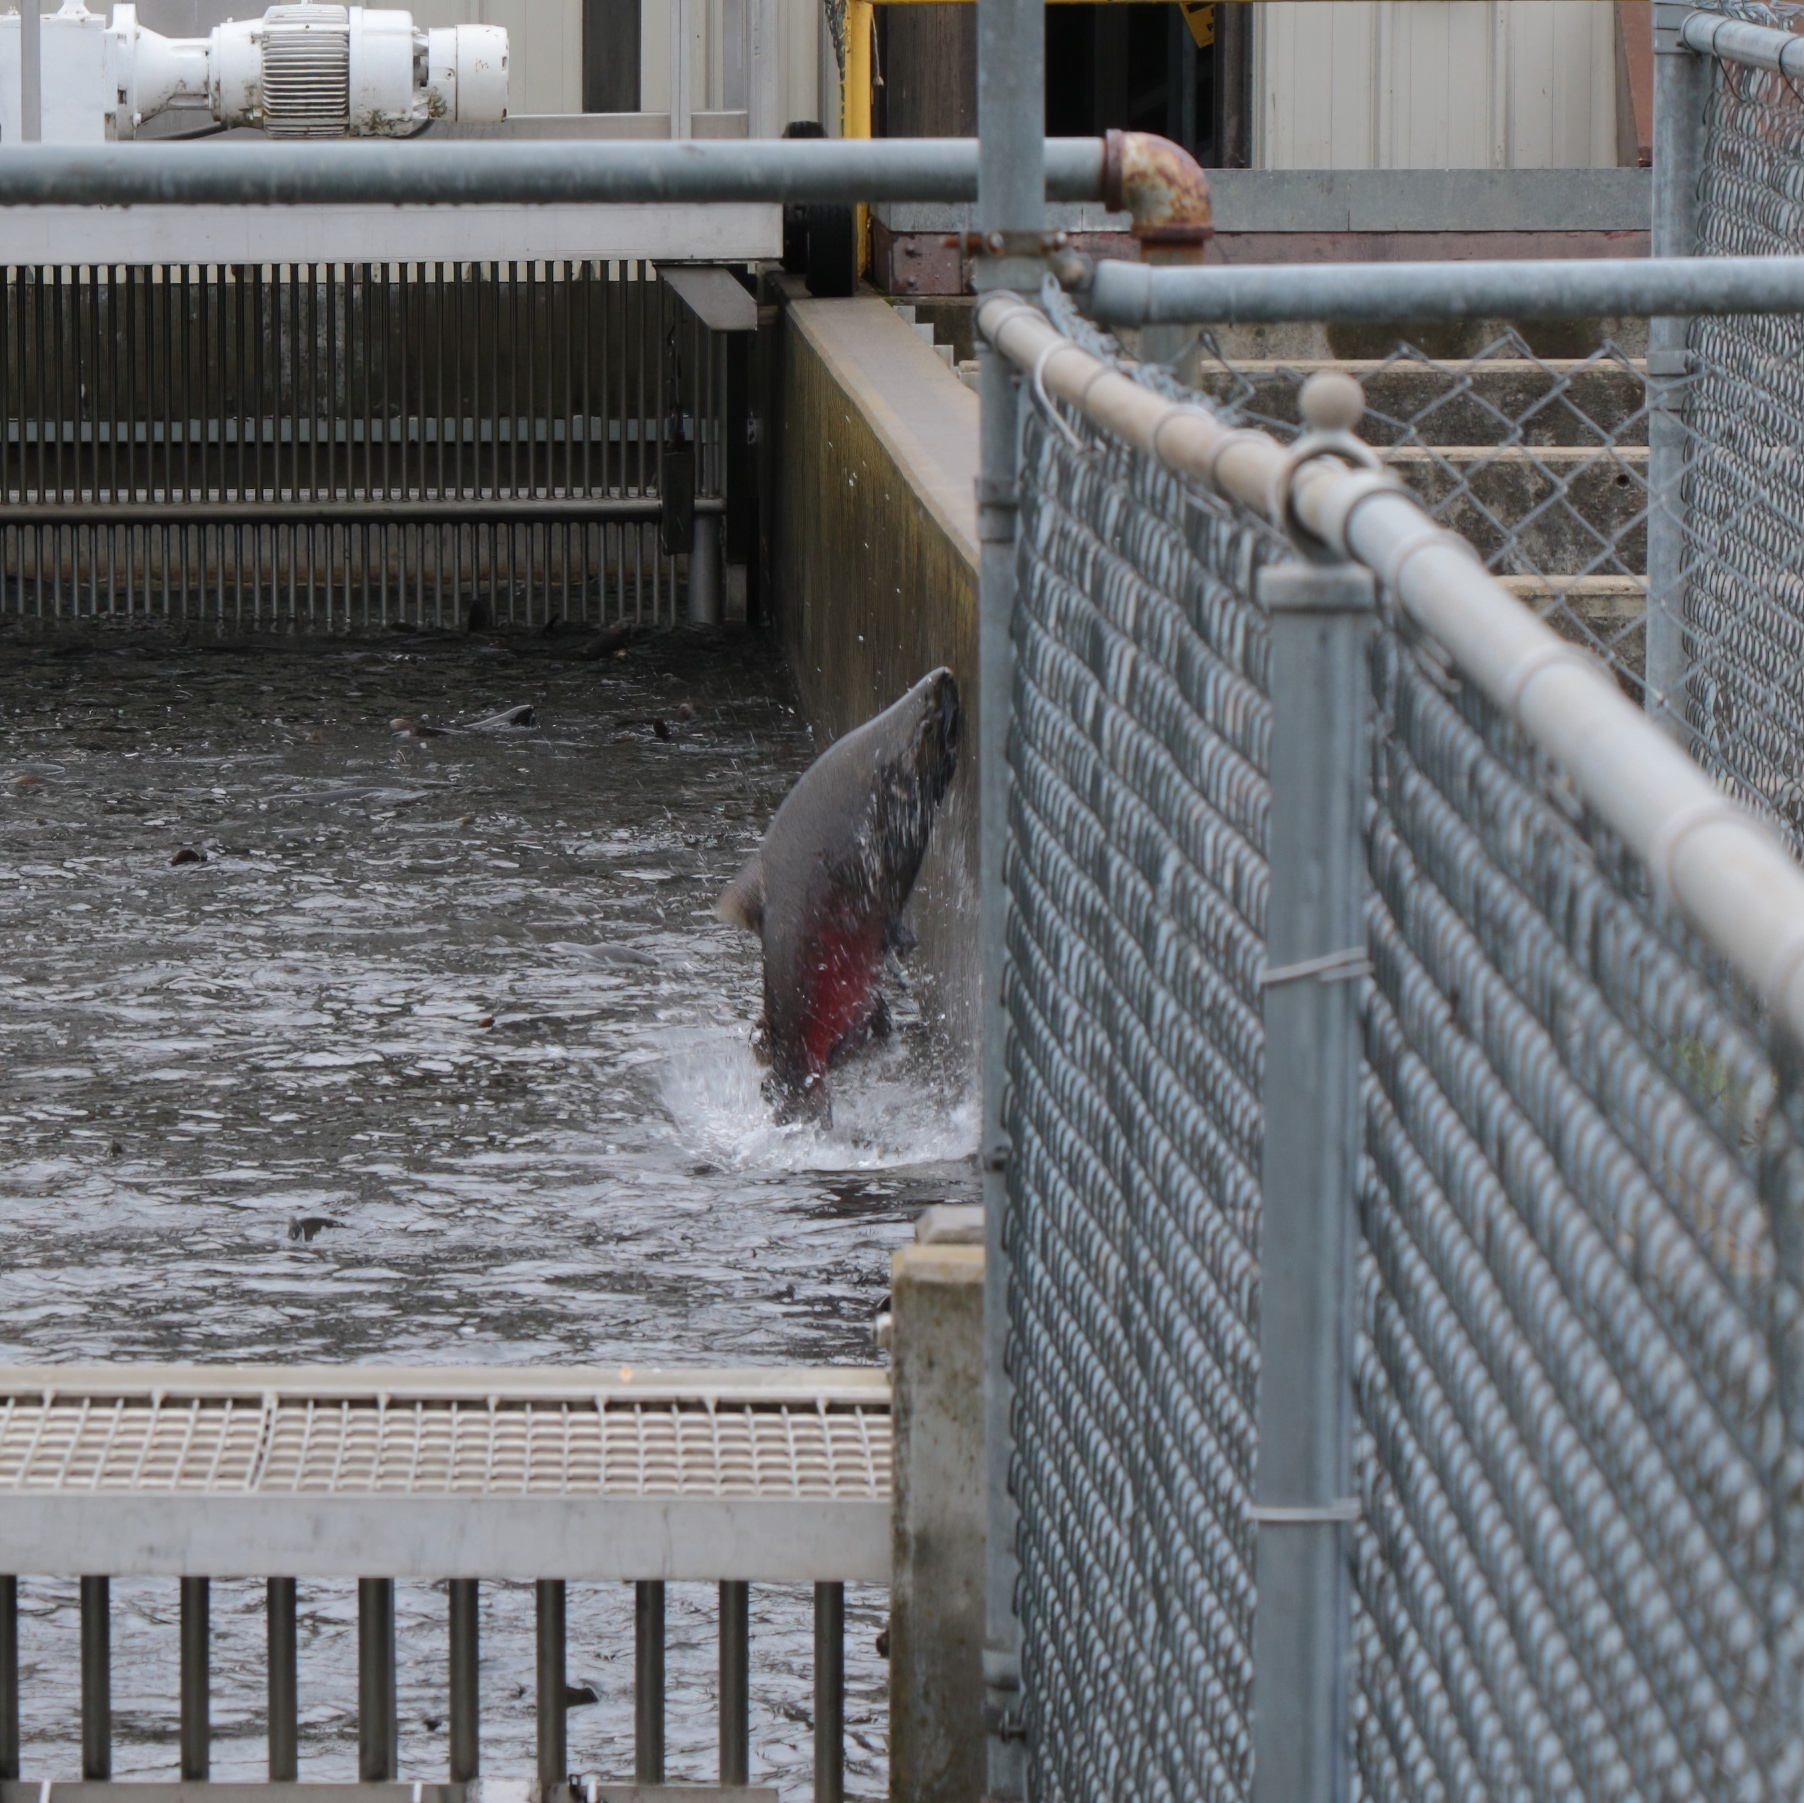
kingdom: Animalia
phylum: Chordata
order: Salmoniformes
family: Salmonidae
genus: Oncorhynchus
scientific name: Oncorhynchus tshawytscha
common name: Chinook salmon
